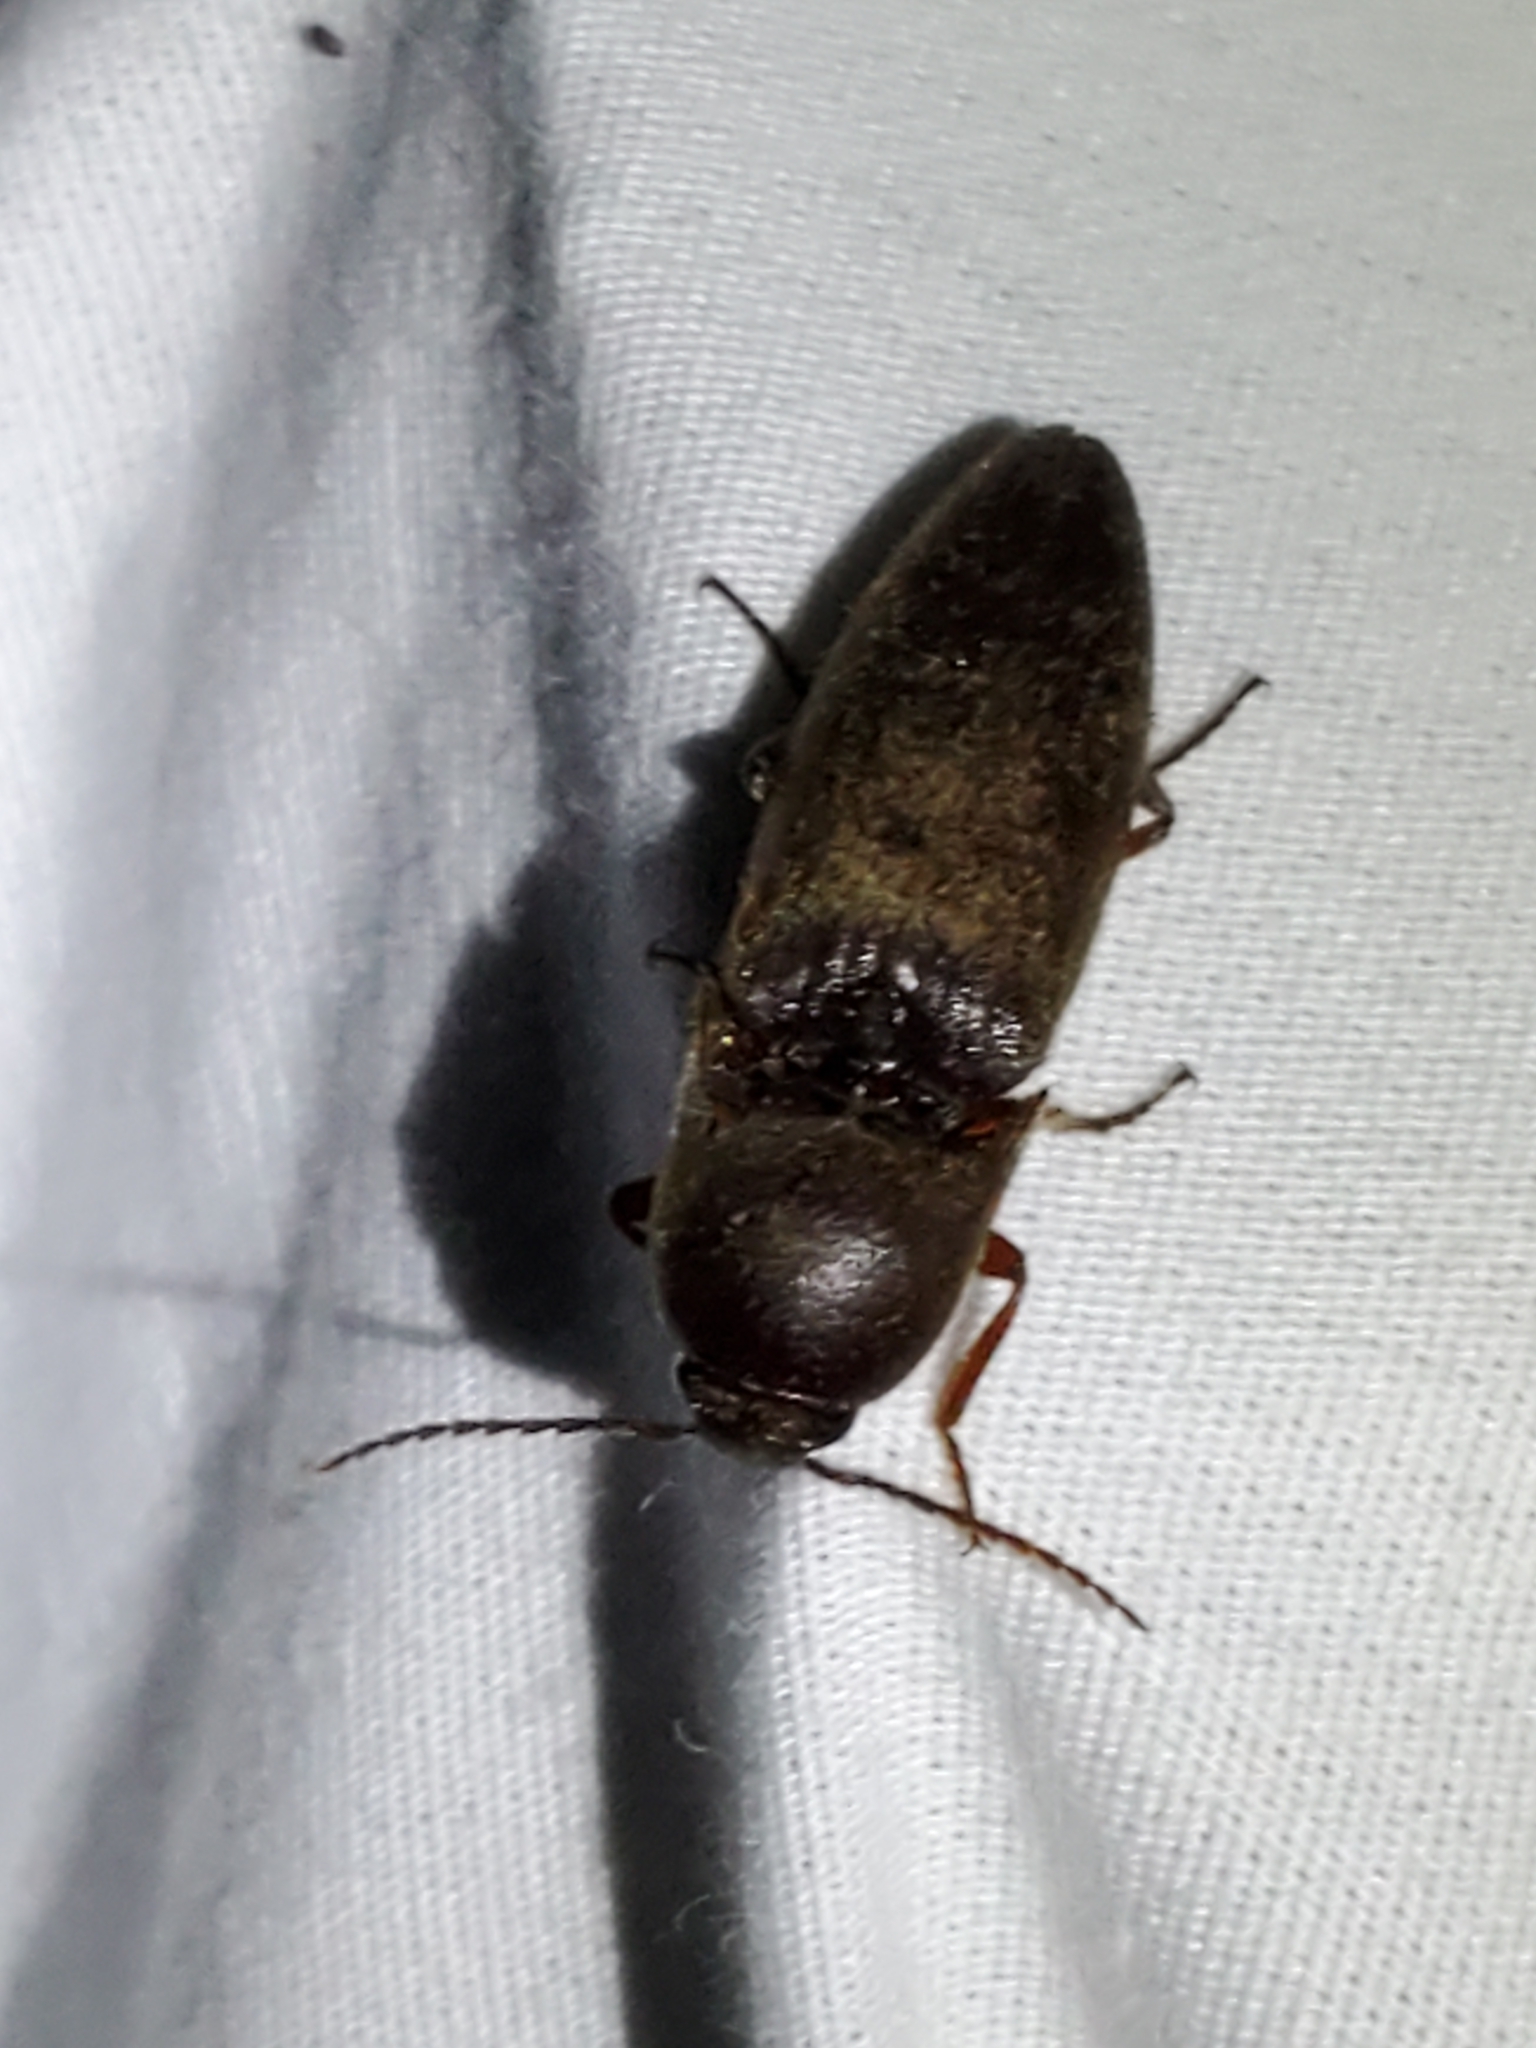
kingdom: Animalia
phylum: Arthropoda
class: Insecta
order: Coleoptera
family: Elateridae
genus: Diplostethus
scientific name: Diplostethus
